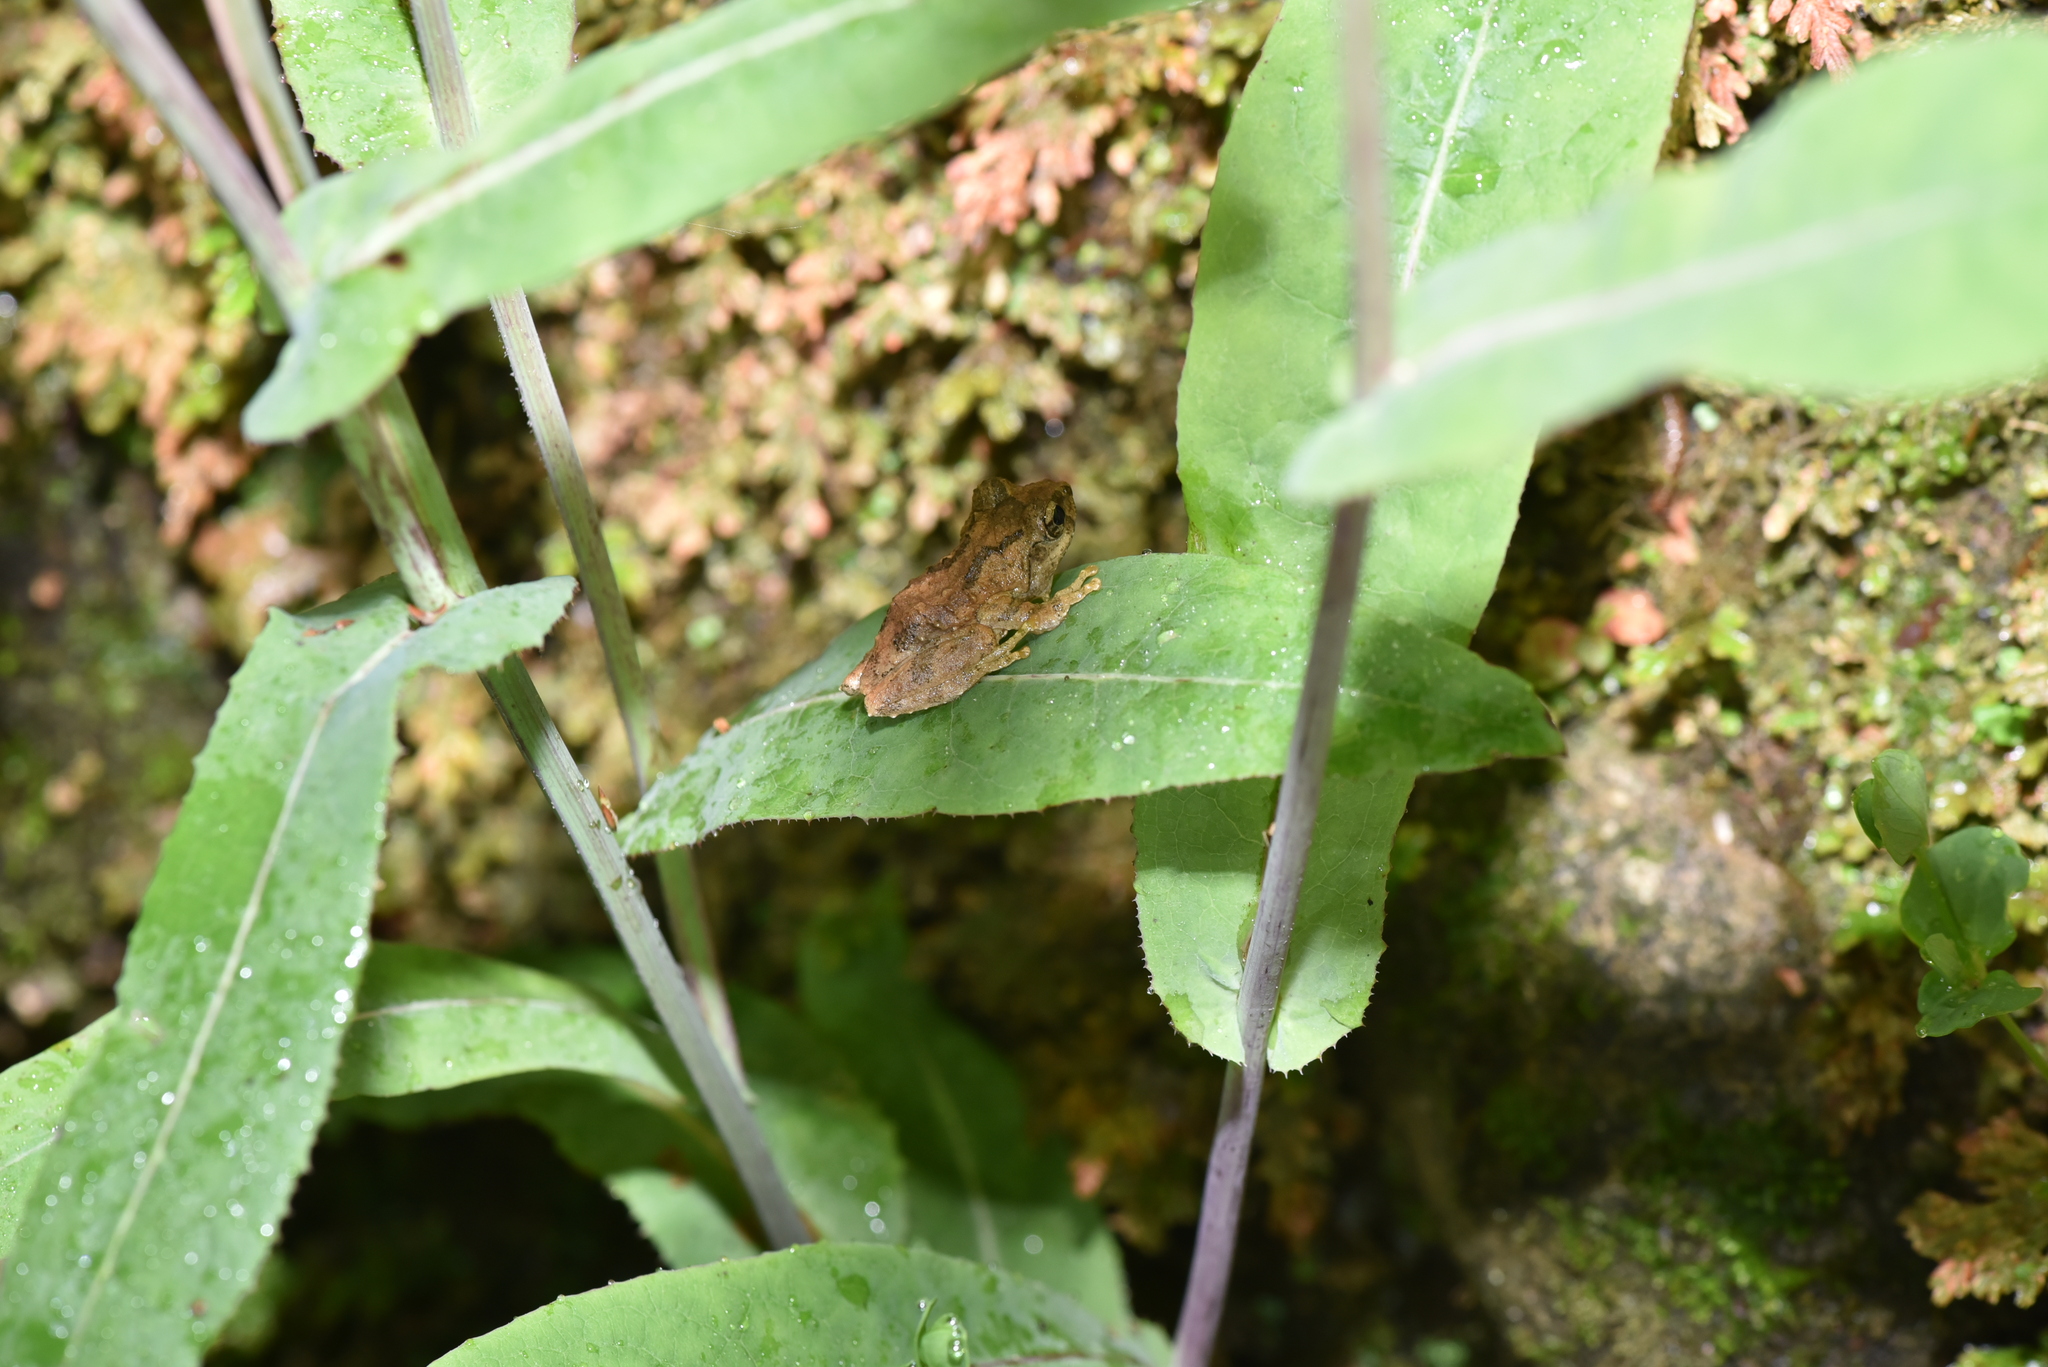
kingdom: Animalia
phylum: Chordata
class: Amphibia
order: Anura
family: Rhacophoridae
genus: Kurixalus
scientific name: Kurixalus idiootocus
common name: Temple treefrog
